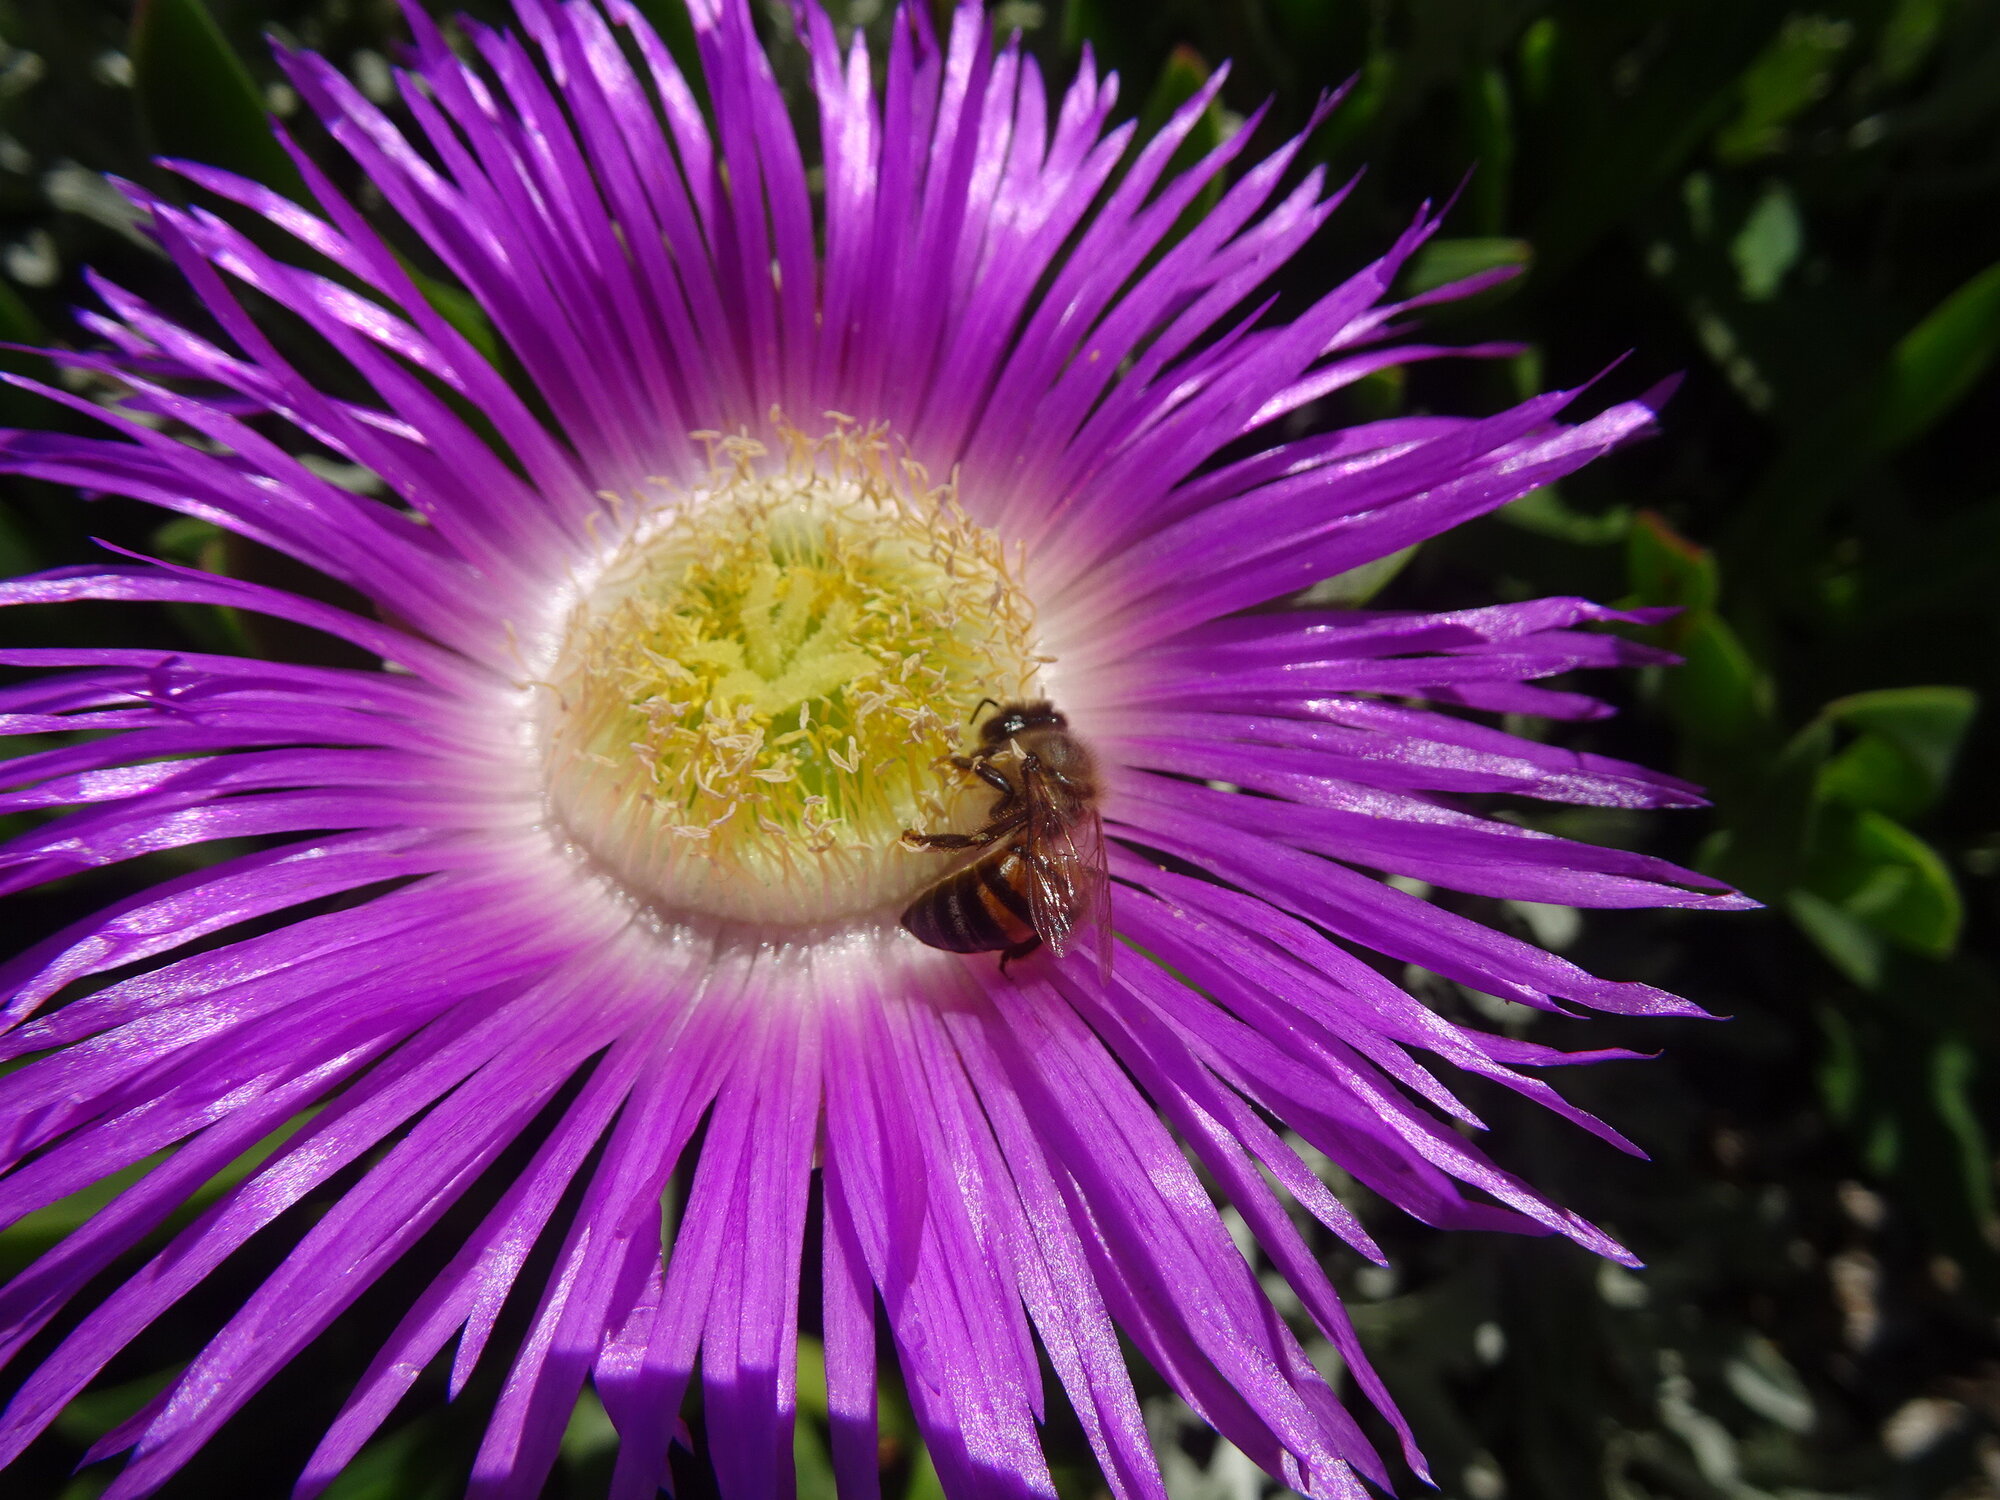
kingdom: Animalia
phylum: Arthropoda
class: Insecta
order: Hymenoptera
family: Apidae
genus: Apis
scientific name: Apis mellifera
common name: Honey bee
